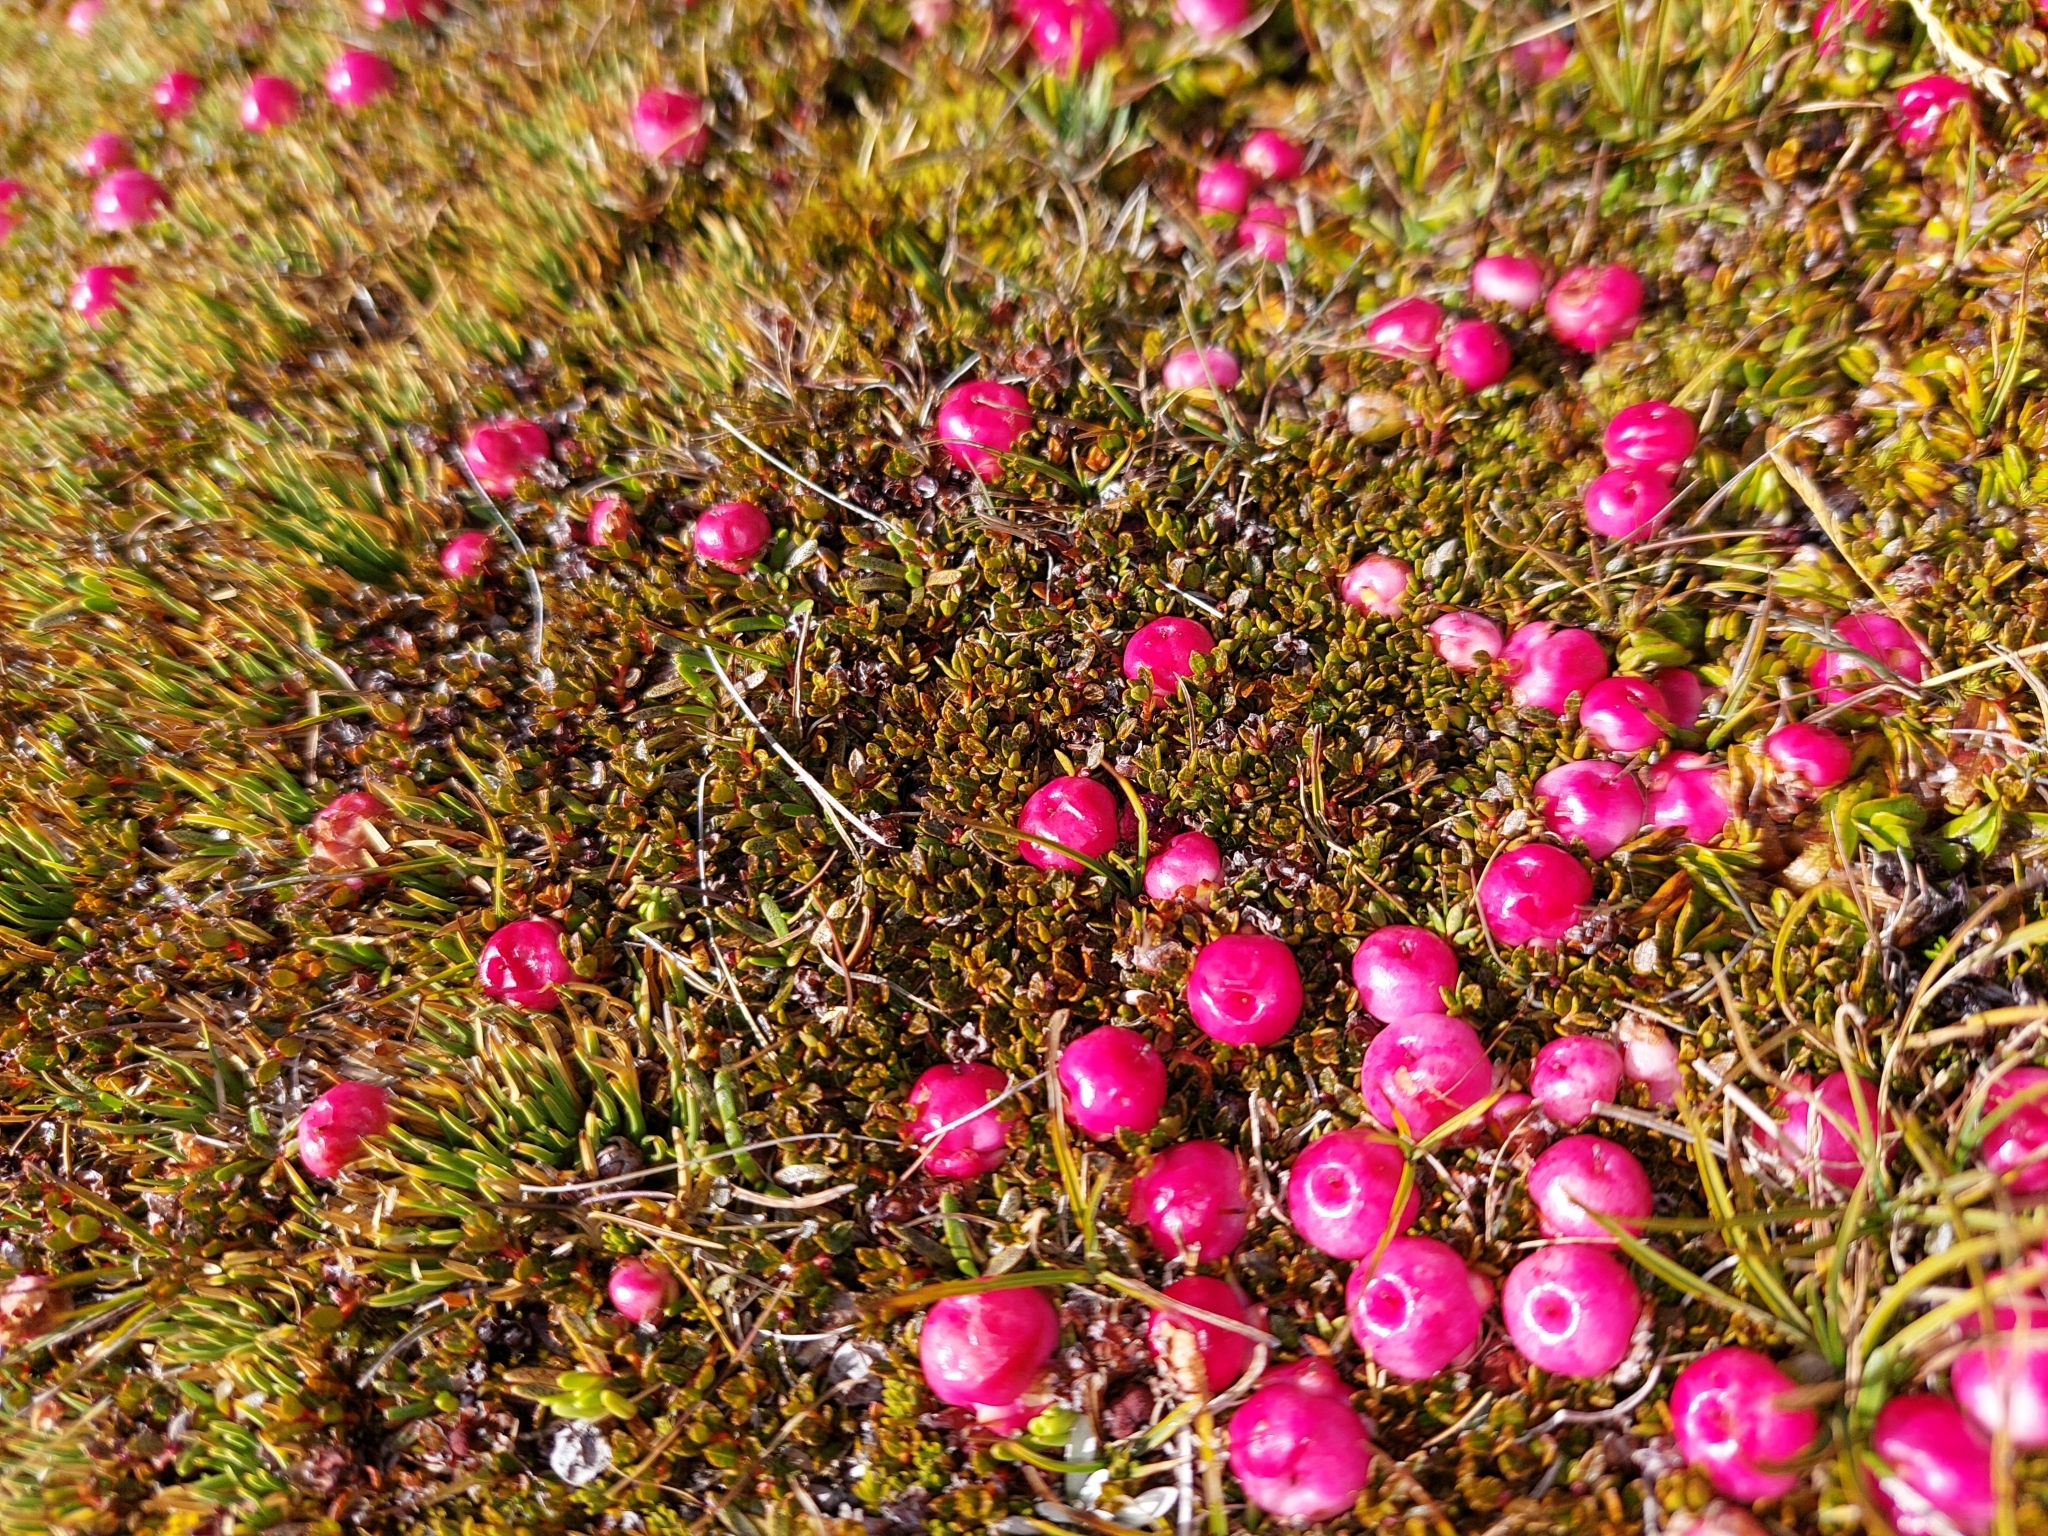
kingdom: Plantae
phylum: Tracheophyta
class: Magnoliopsida
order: Ericales
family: Ericaceae
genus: Gaultheria
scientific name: Gaultheria parvula
